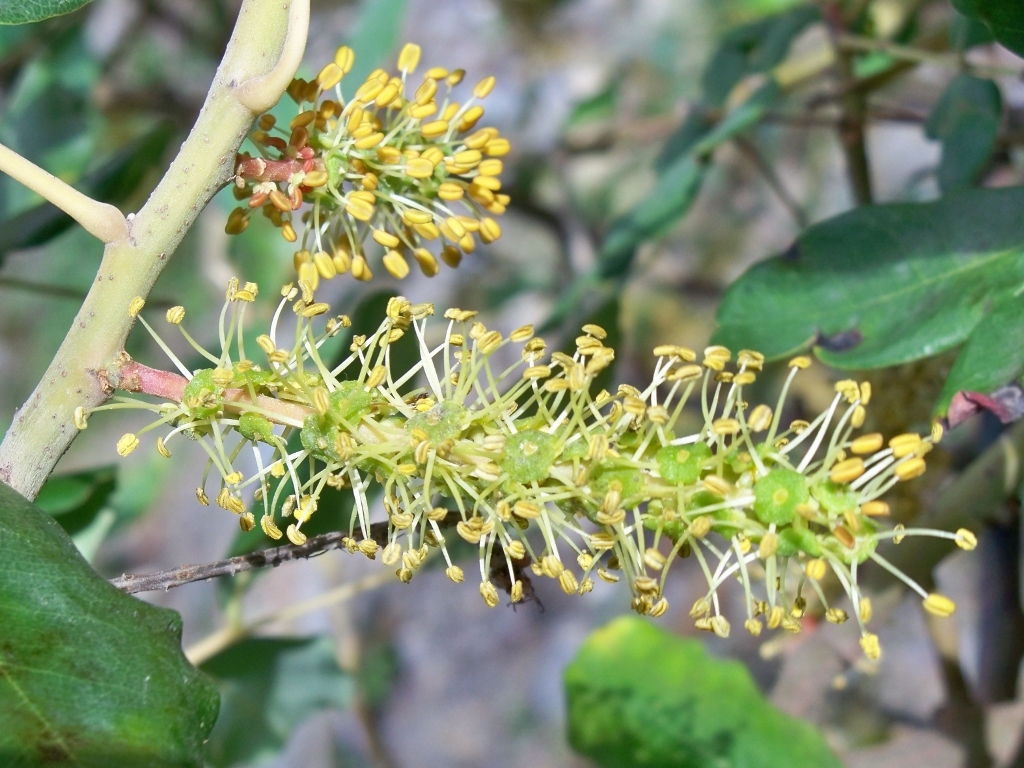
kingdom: Plantae
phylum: Tracheophyta
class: Magnoliopsida
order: Fabales
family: Fabaceae
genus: Ceratonia
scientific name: Ceratonia siliqua
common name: Carob
